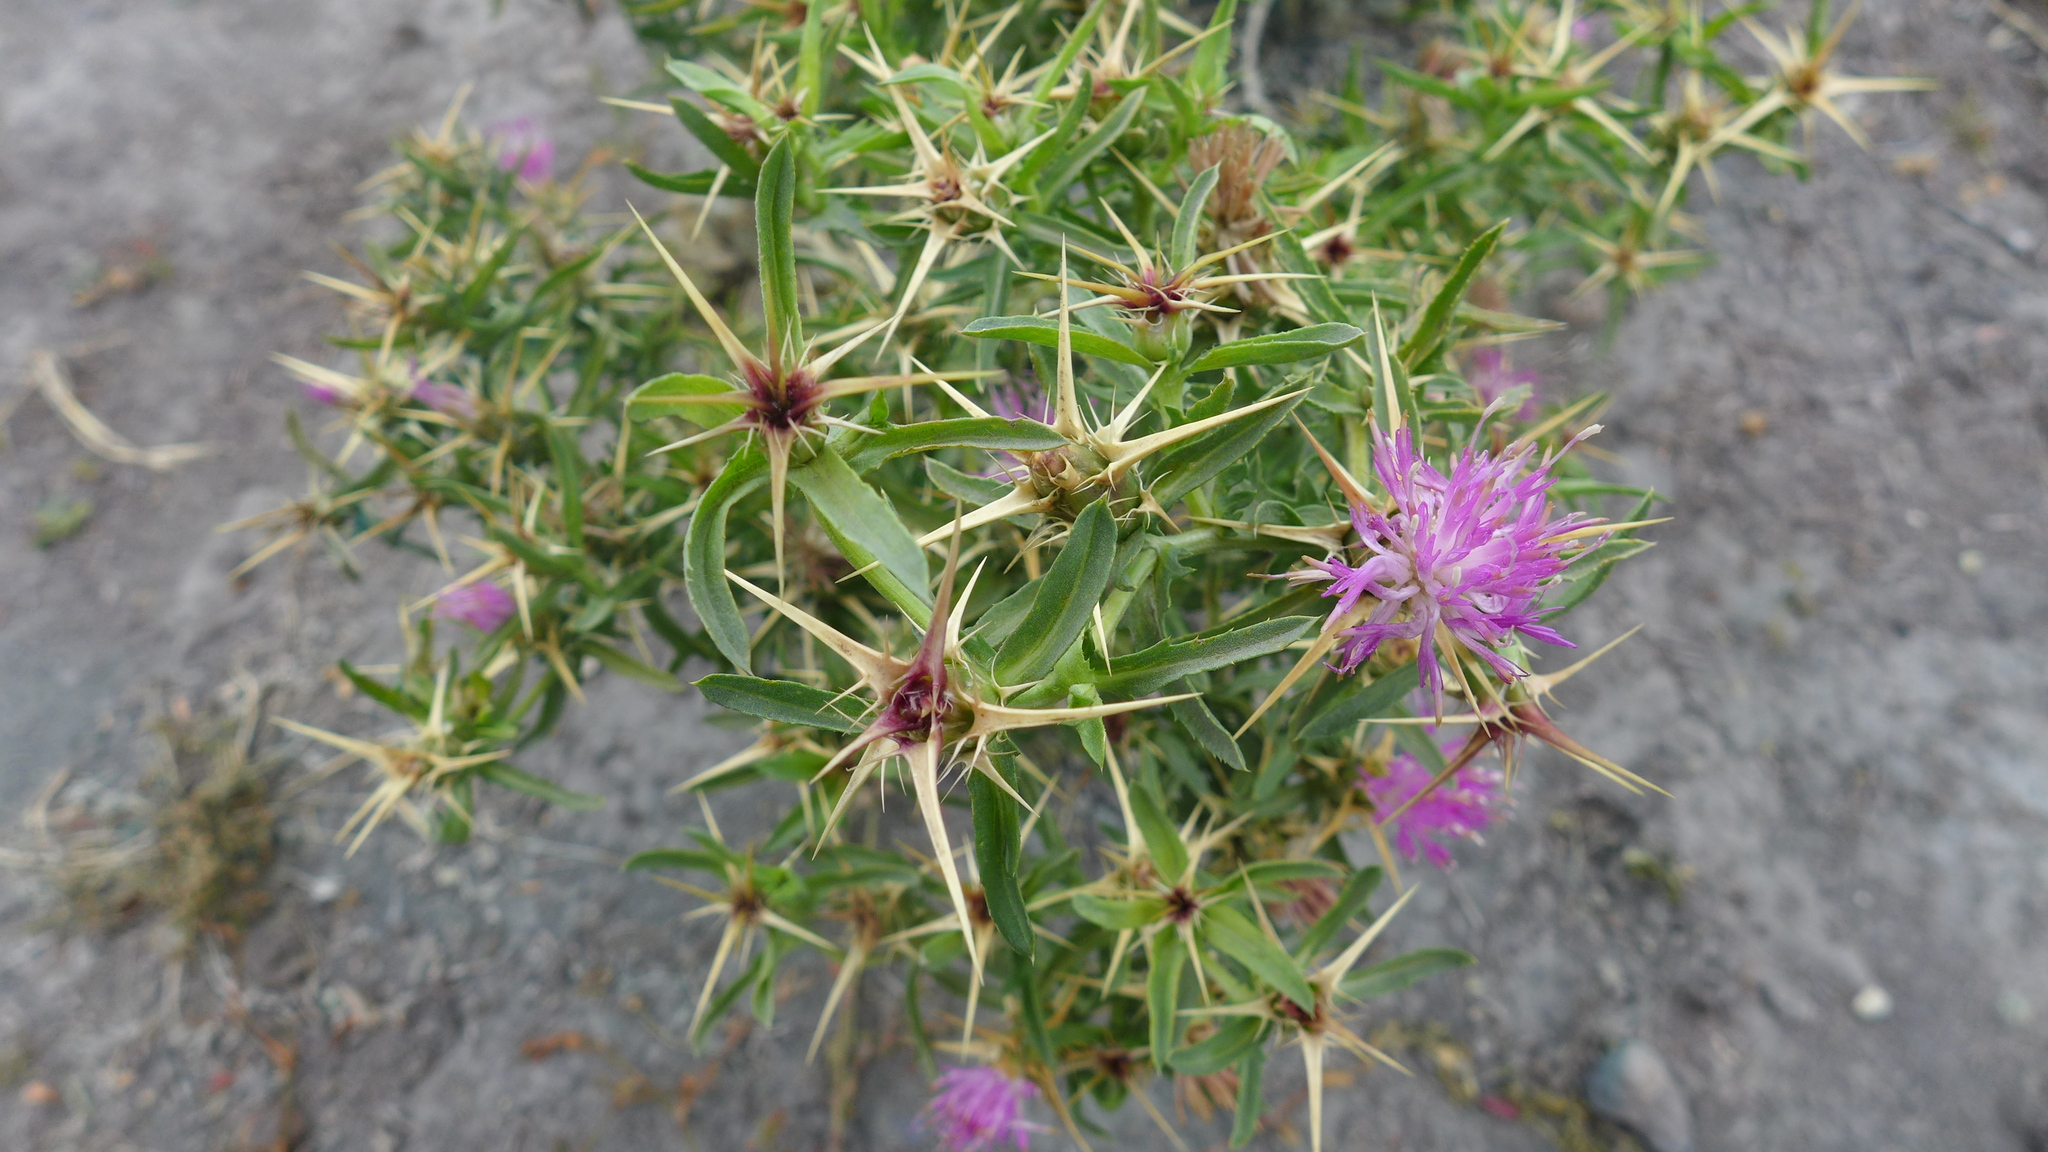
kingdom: Plantae
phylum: Tracheophyta
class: Magnoliopsida
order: Asterales
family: Asteraceae
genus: Centaurea
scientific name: Centaurea calcitrapa
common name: Red star-thistle
